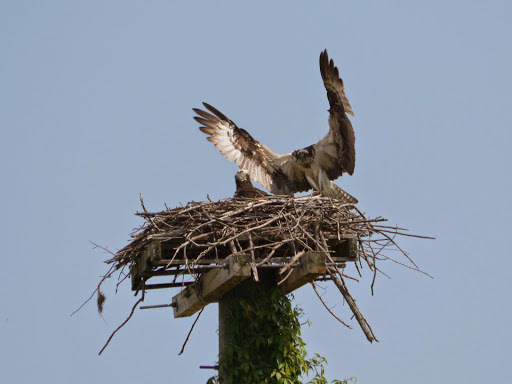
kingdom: Animalia
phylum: Chordata
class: Aves
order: Accipitriformes
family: Pandionidae
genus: Pandion
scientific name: Pandion haliaetus
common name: Osprey
